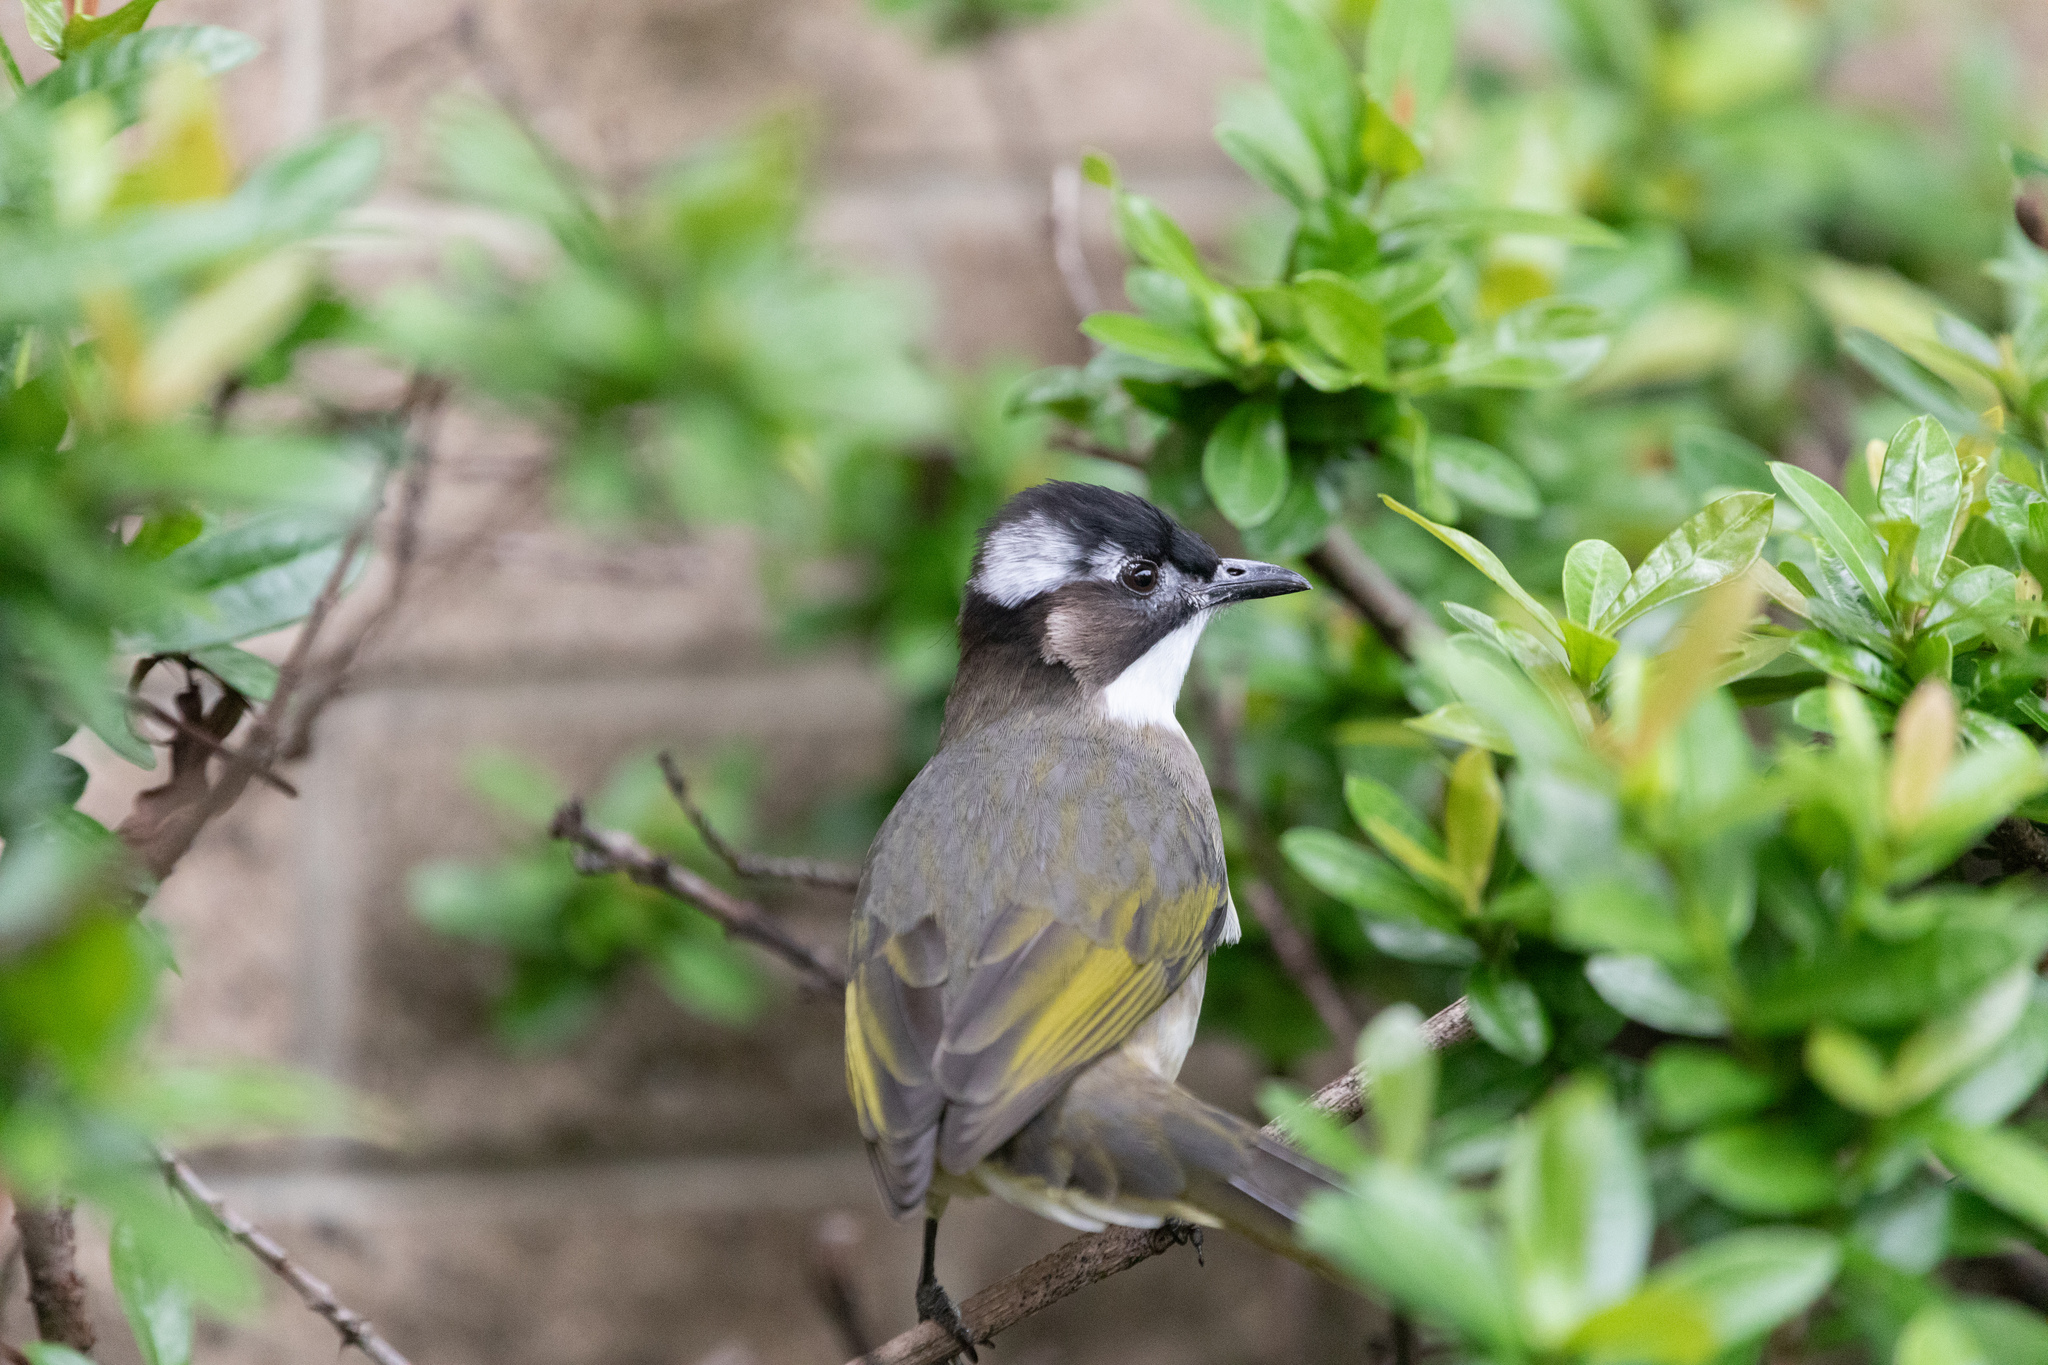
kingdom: Animalia
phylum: Chordata
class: Aves
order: Passeriformes
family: Pycnonotidae
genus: Pycnonotus
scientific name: Pycnonotus sinensis
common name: Light-vented bulbul
